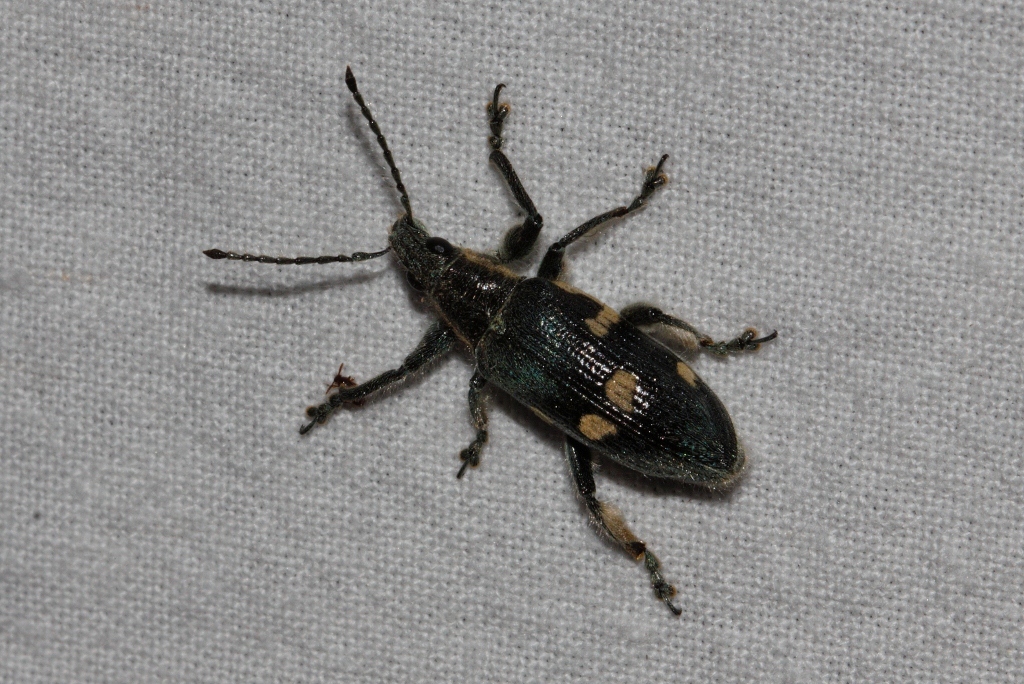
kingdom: Animalia
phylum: Arthropoda
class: Insecta
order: Coleoptera
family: Curculionidae
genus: Polyclaeis
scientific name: Polyclaeis longicornis
